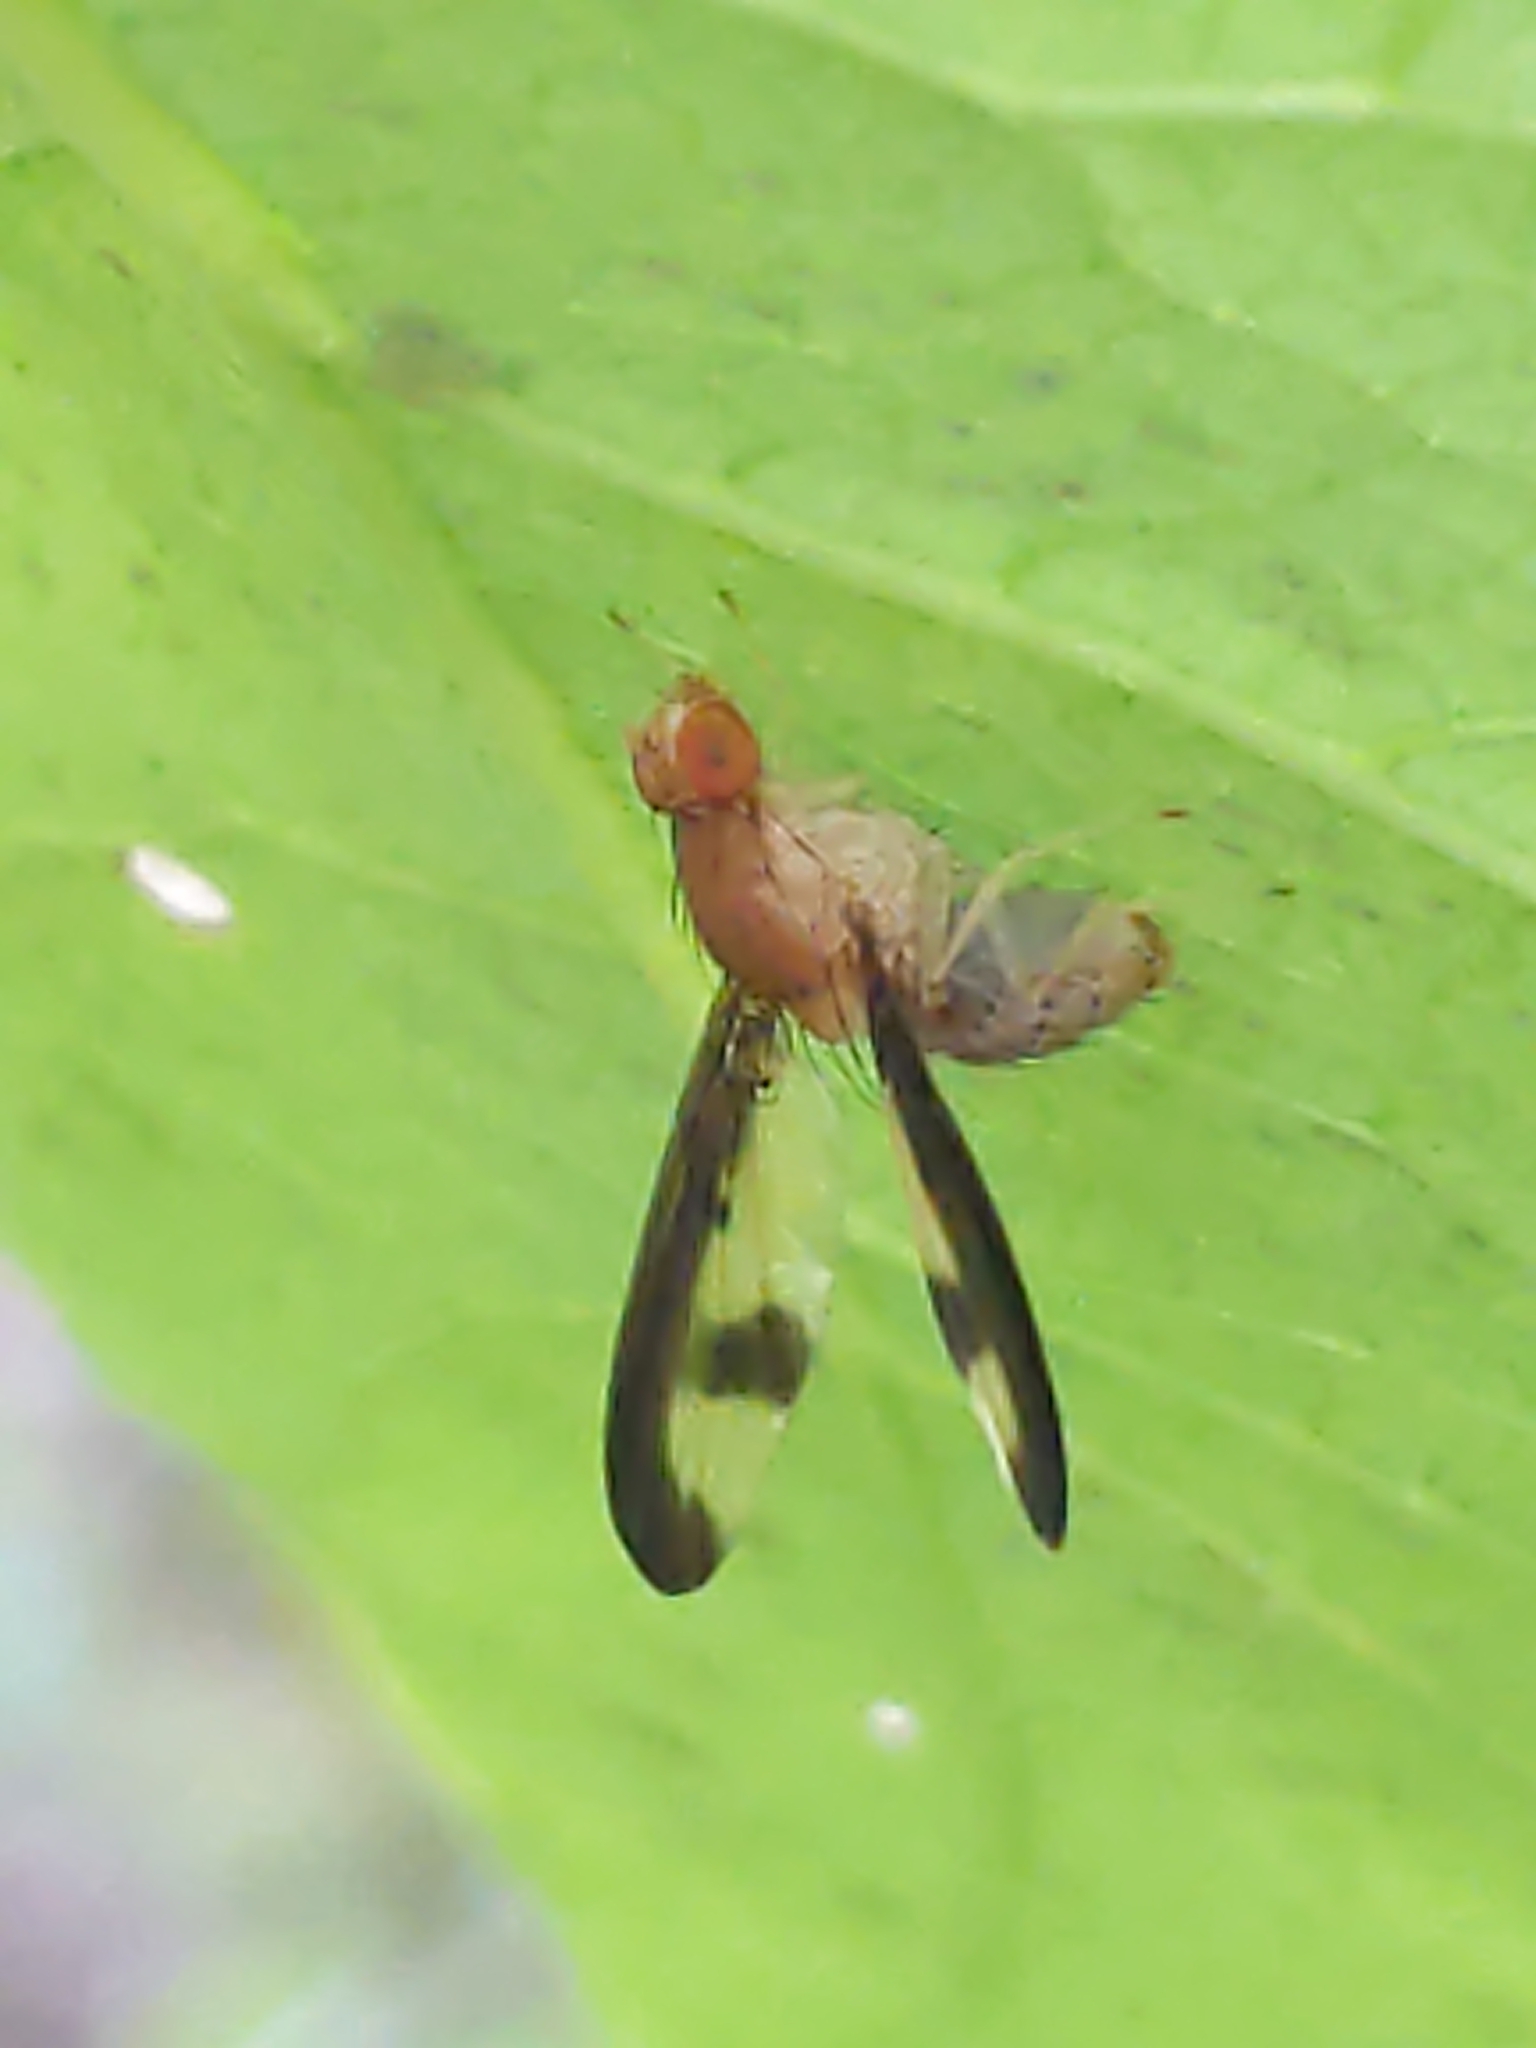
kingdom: Animalia
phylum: Arthropoda
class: Insecta
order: Diptera
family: Pallopteridae
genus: Toxonevra
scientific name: Toxonevra superba
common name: Antlered flutter fly
